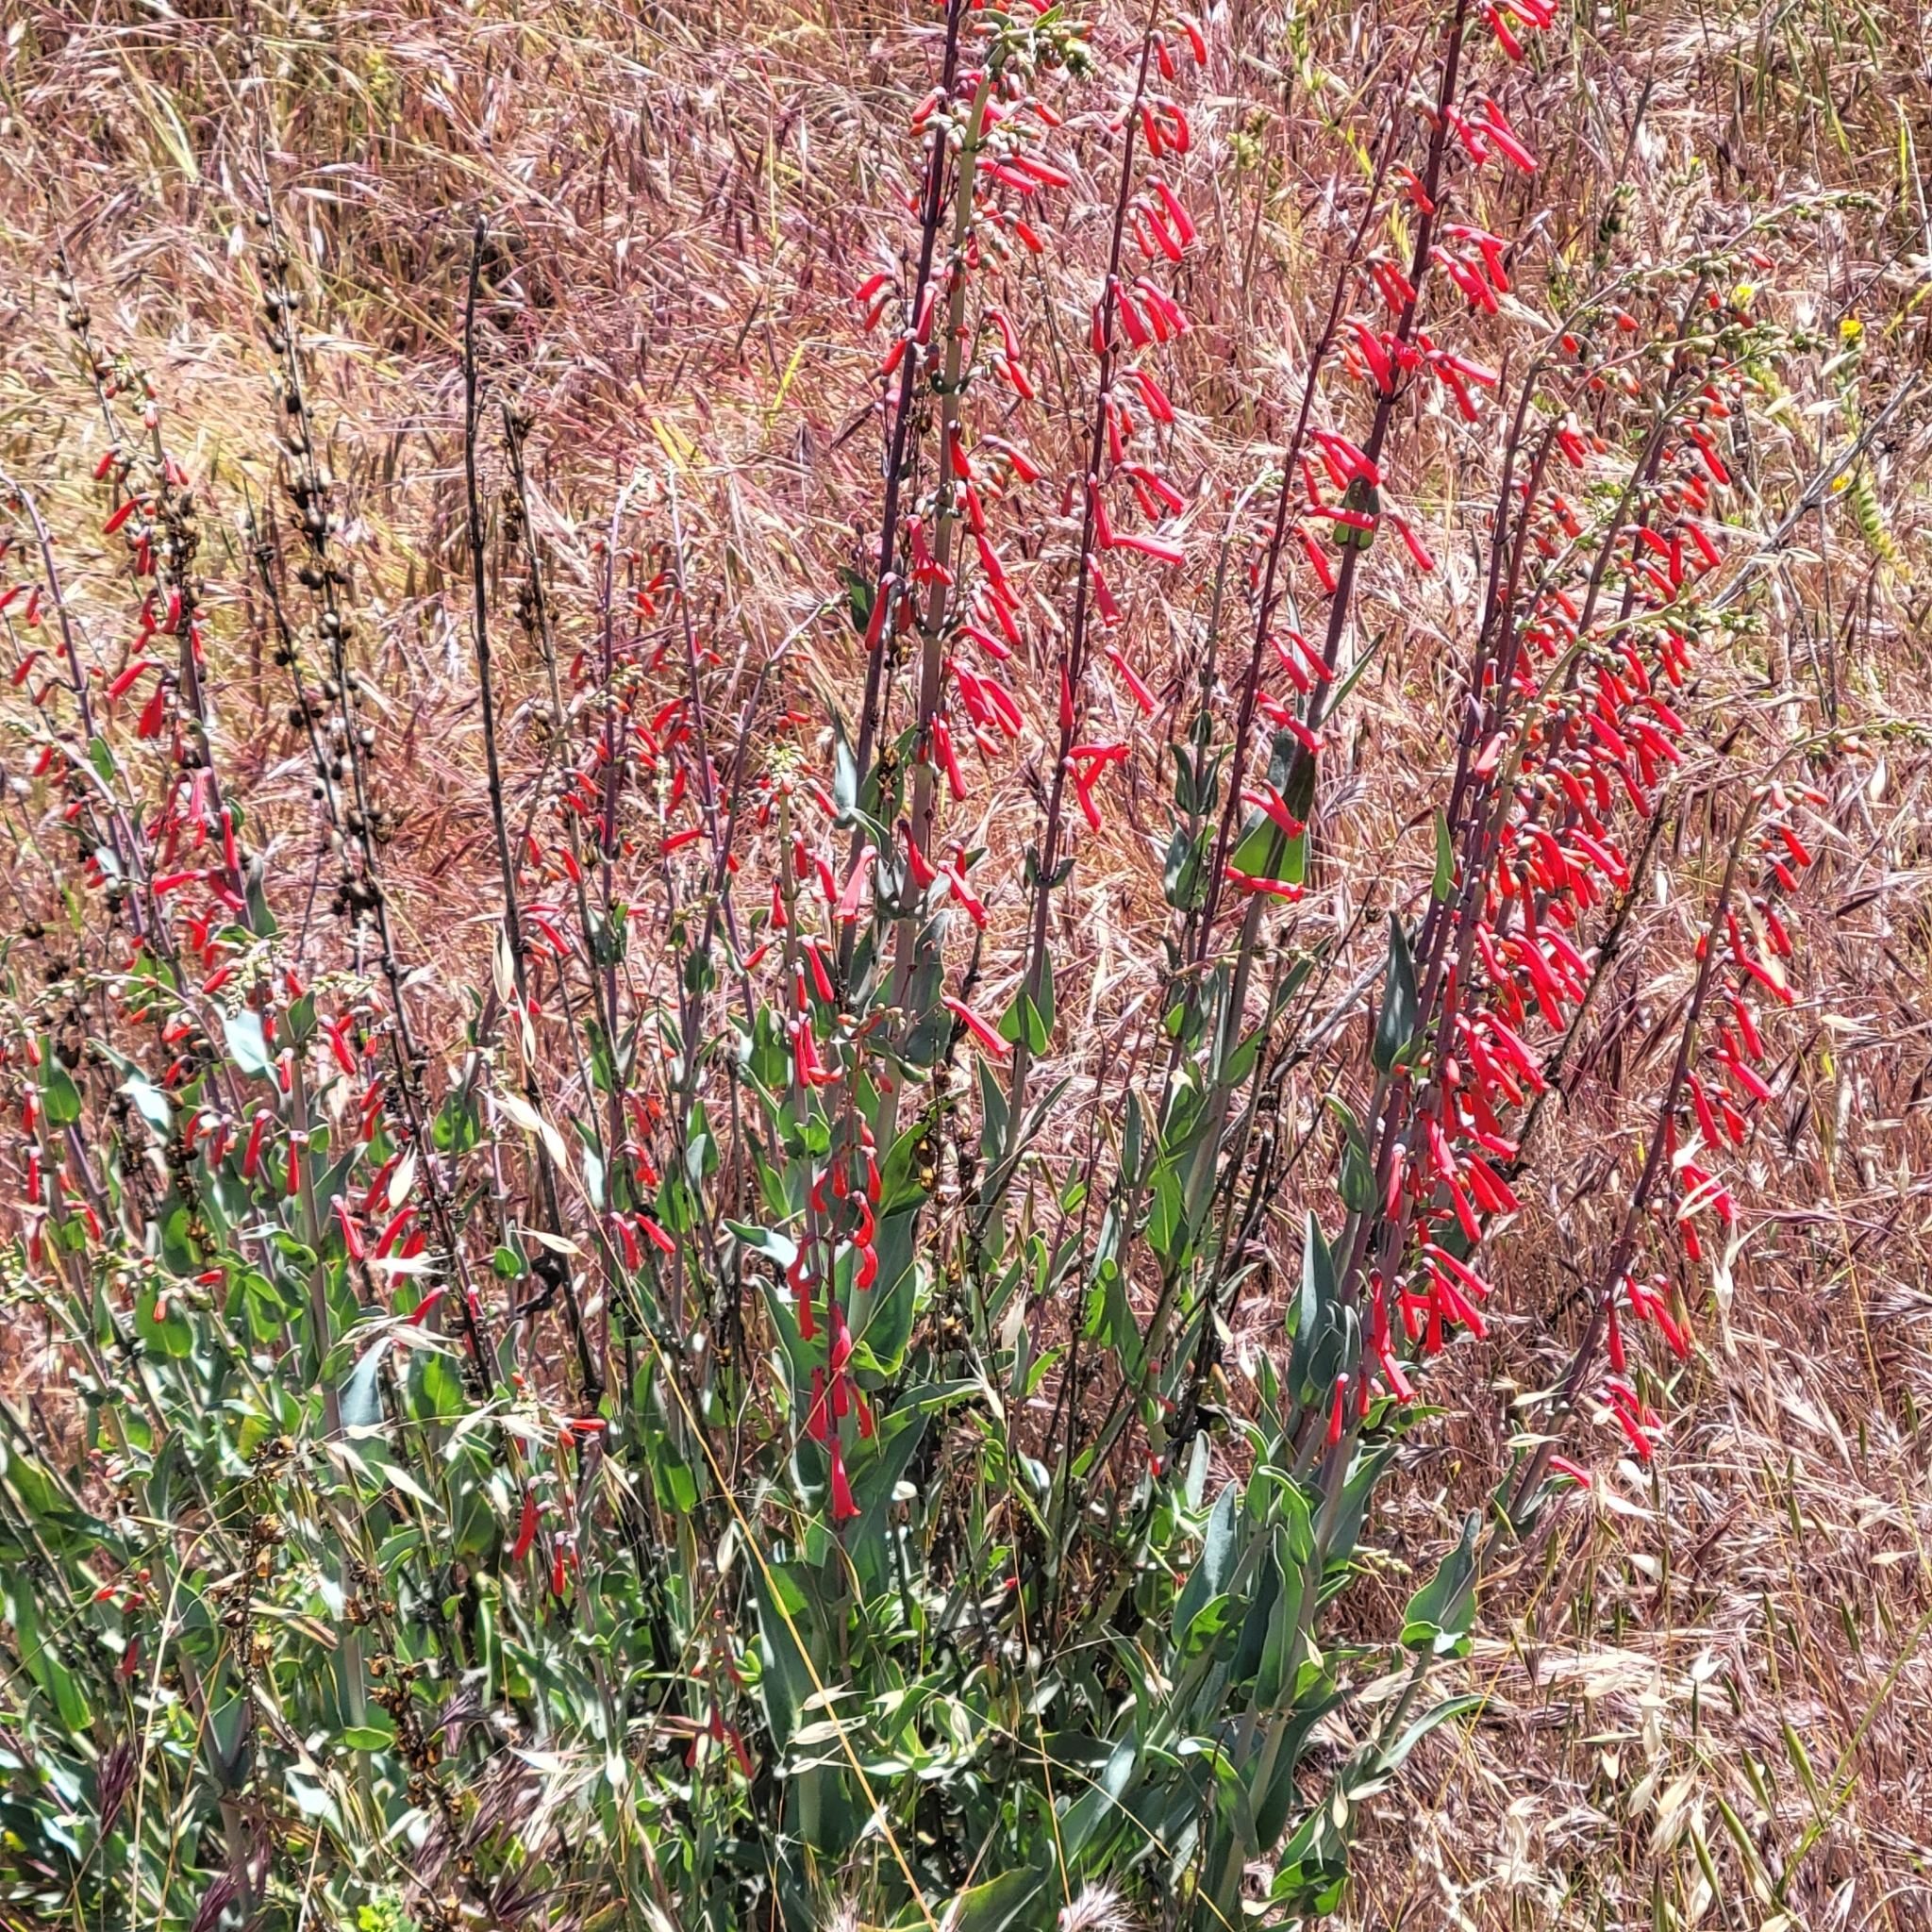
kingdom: Plantae
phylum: Tracheophyta
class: Magnoliopsida
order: Lamiales
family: Plantaginaceae
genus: Penstemon
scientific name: Penstemon centranthifolius
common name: Scarlet bugler
